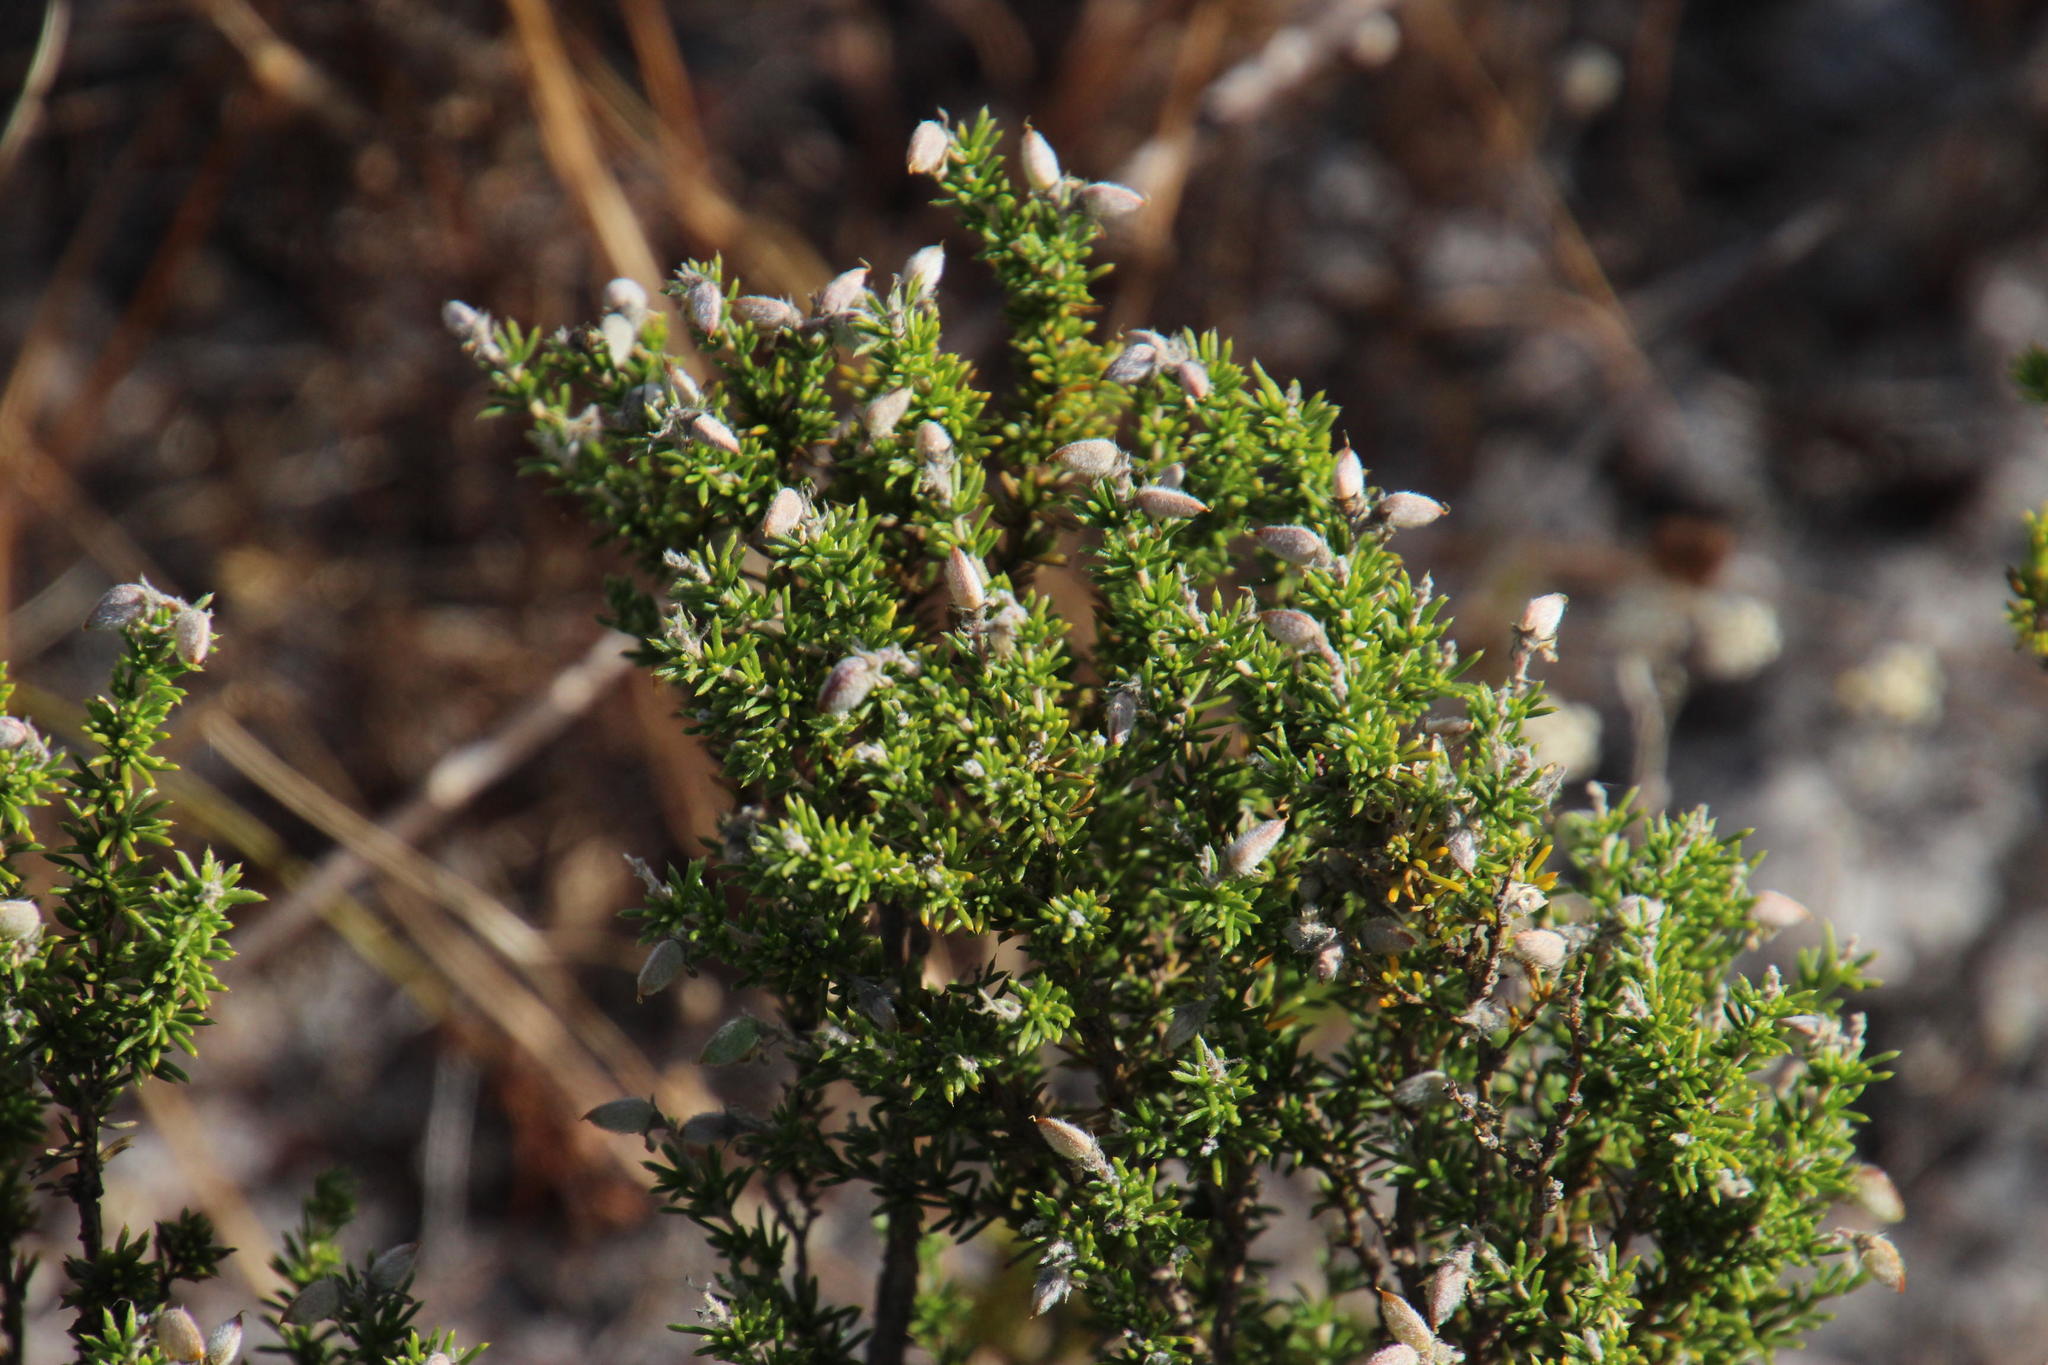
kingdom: Plantae
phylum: Tracheophyta
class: Magnoliopsida
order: Fabales
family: Fabaceae
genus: Aspalathus
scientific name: Aspalathus albens
